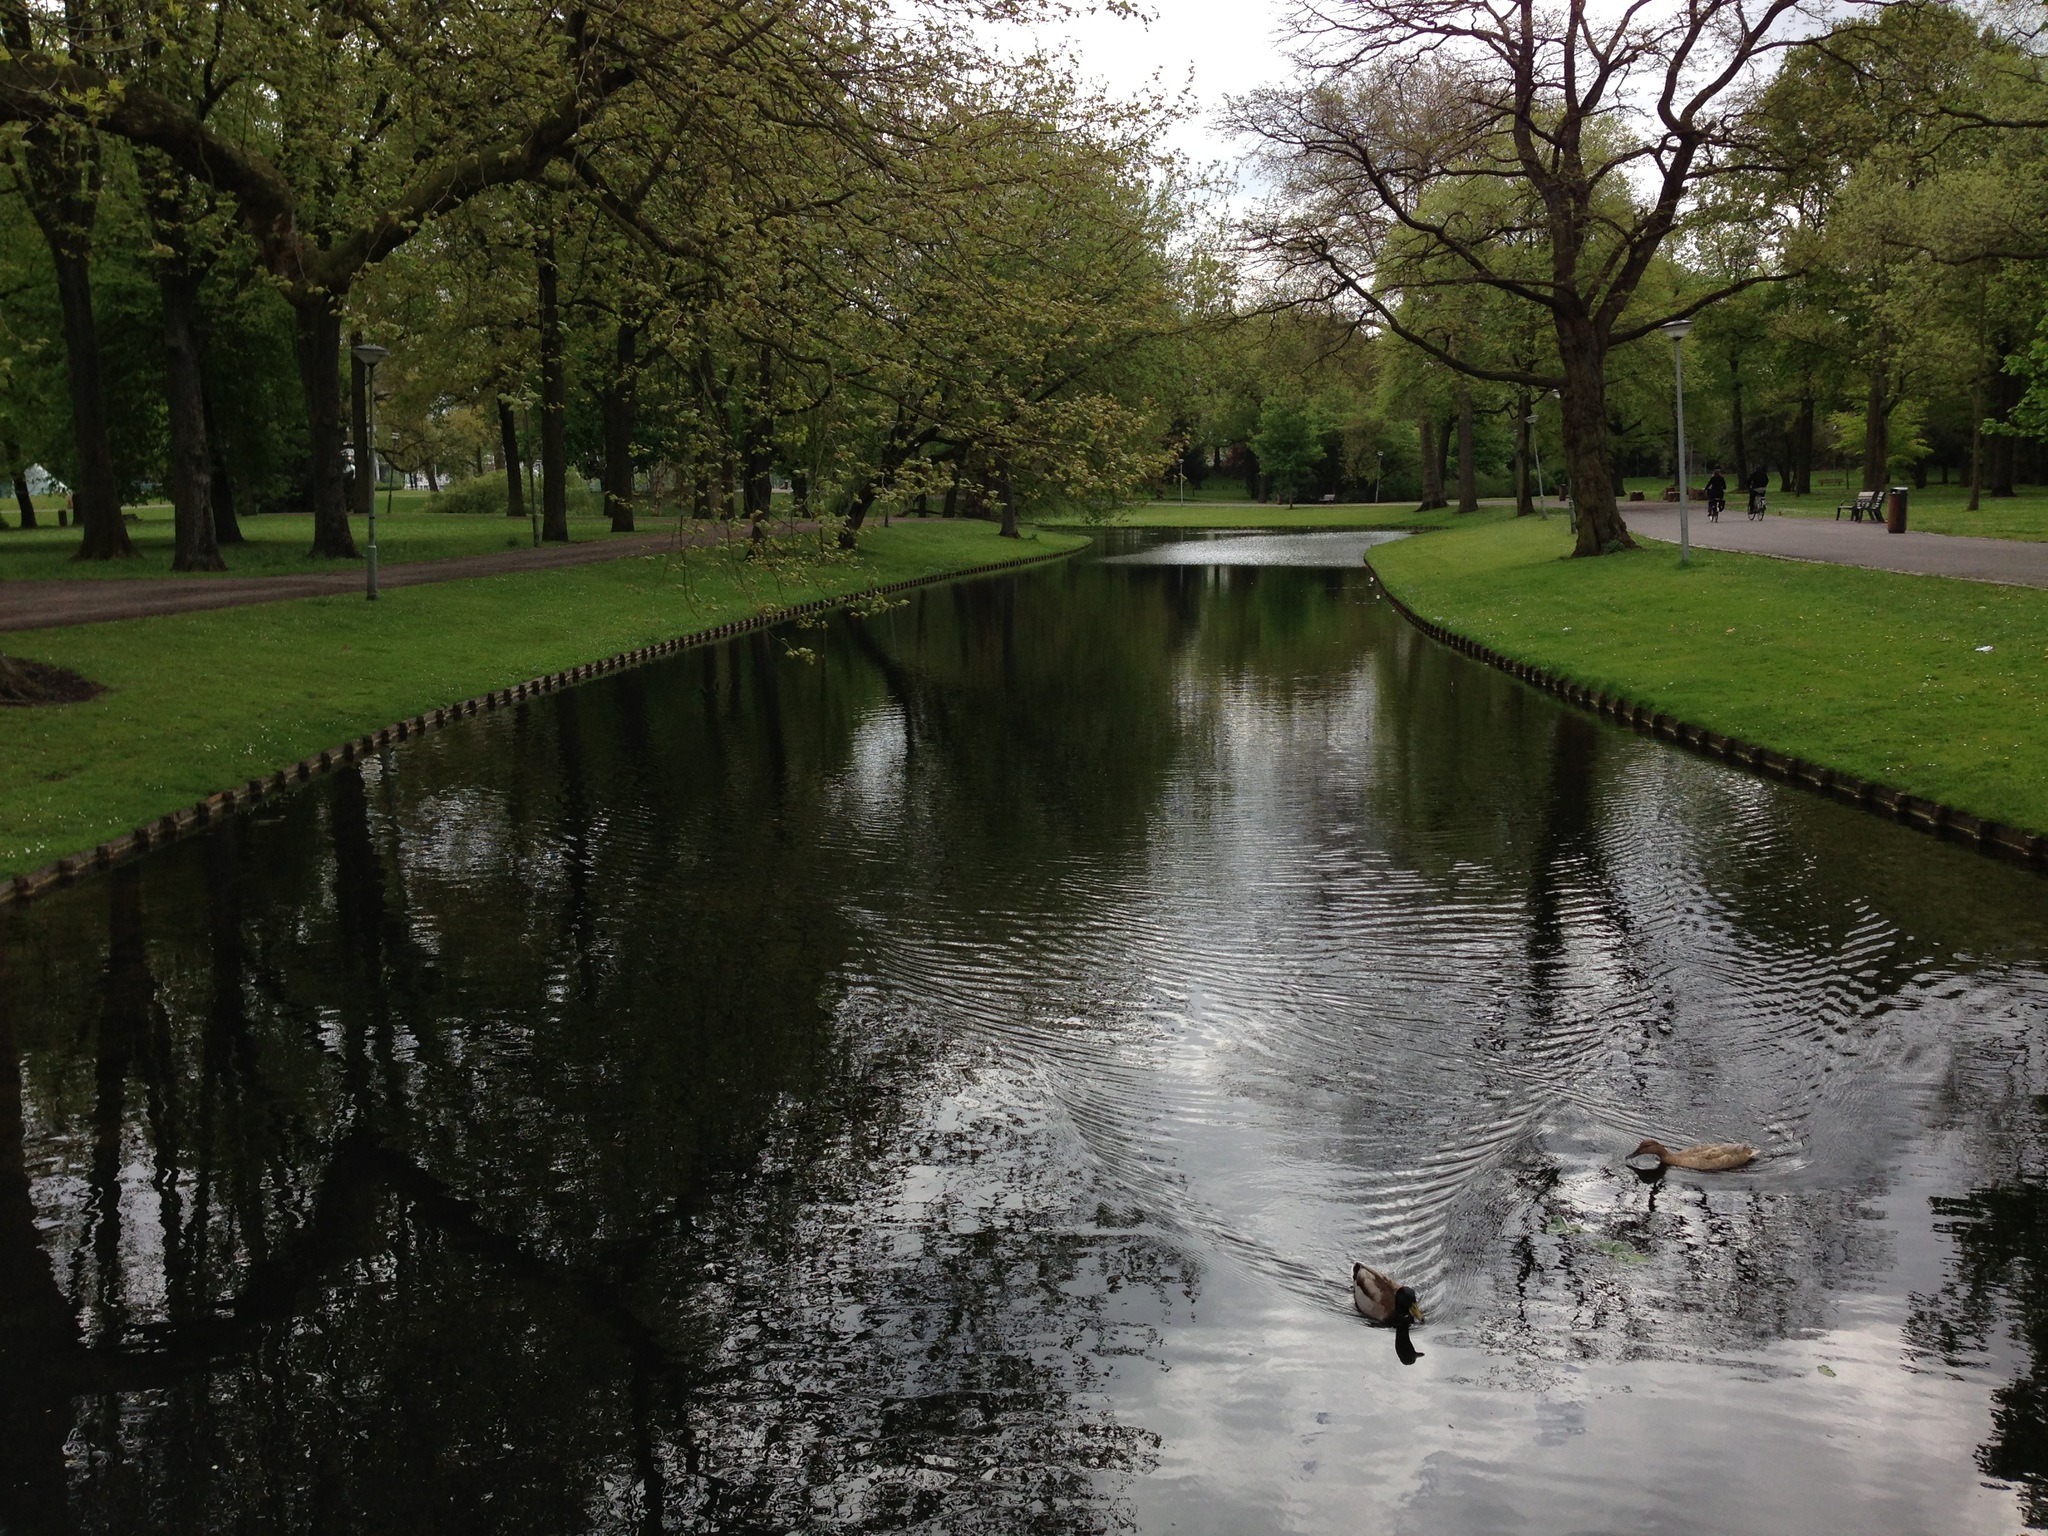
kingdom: Animalia
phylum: Chordata
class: Aves
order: Anseriformes
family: Anatidae
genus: Anas
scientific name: Anas platyrhynchos
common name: Mallard
